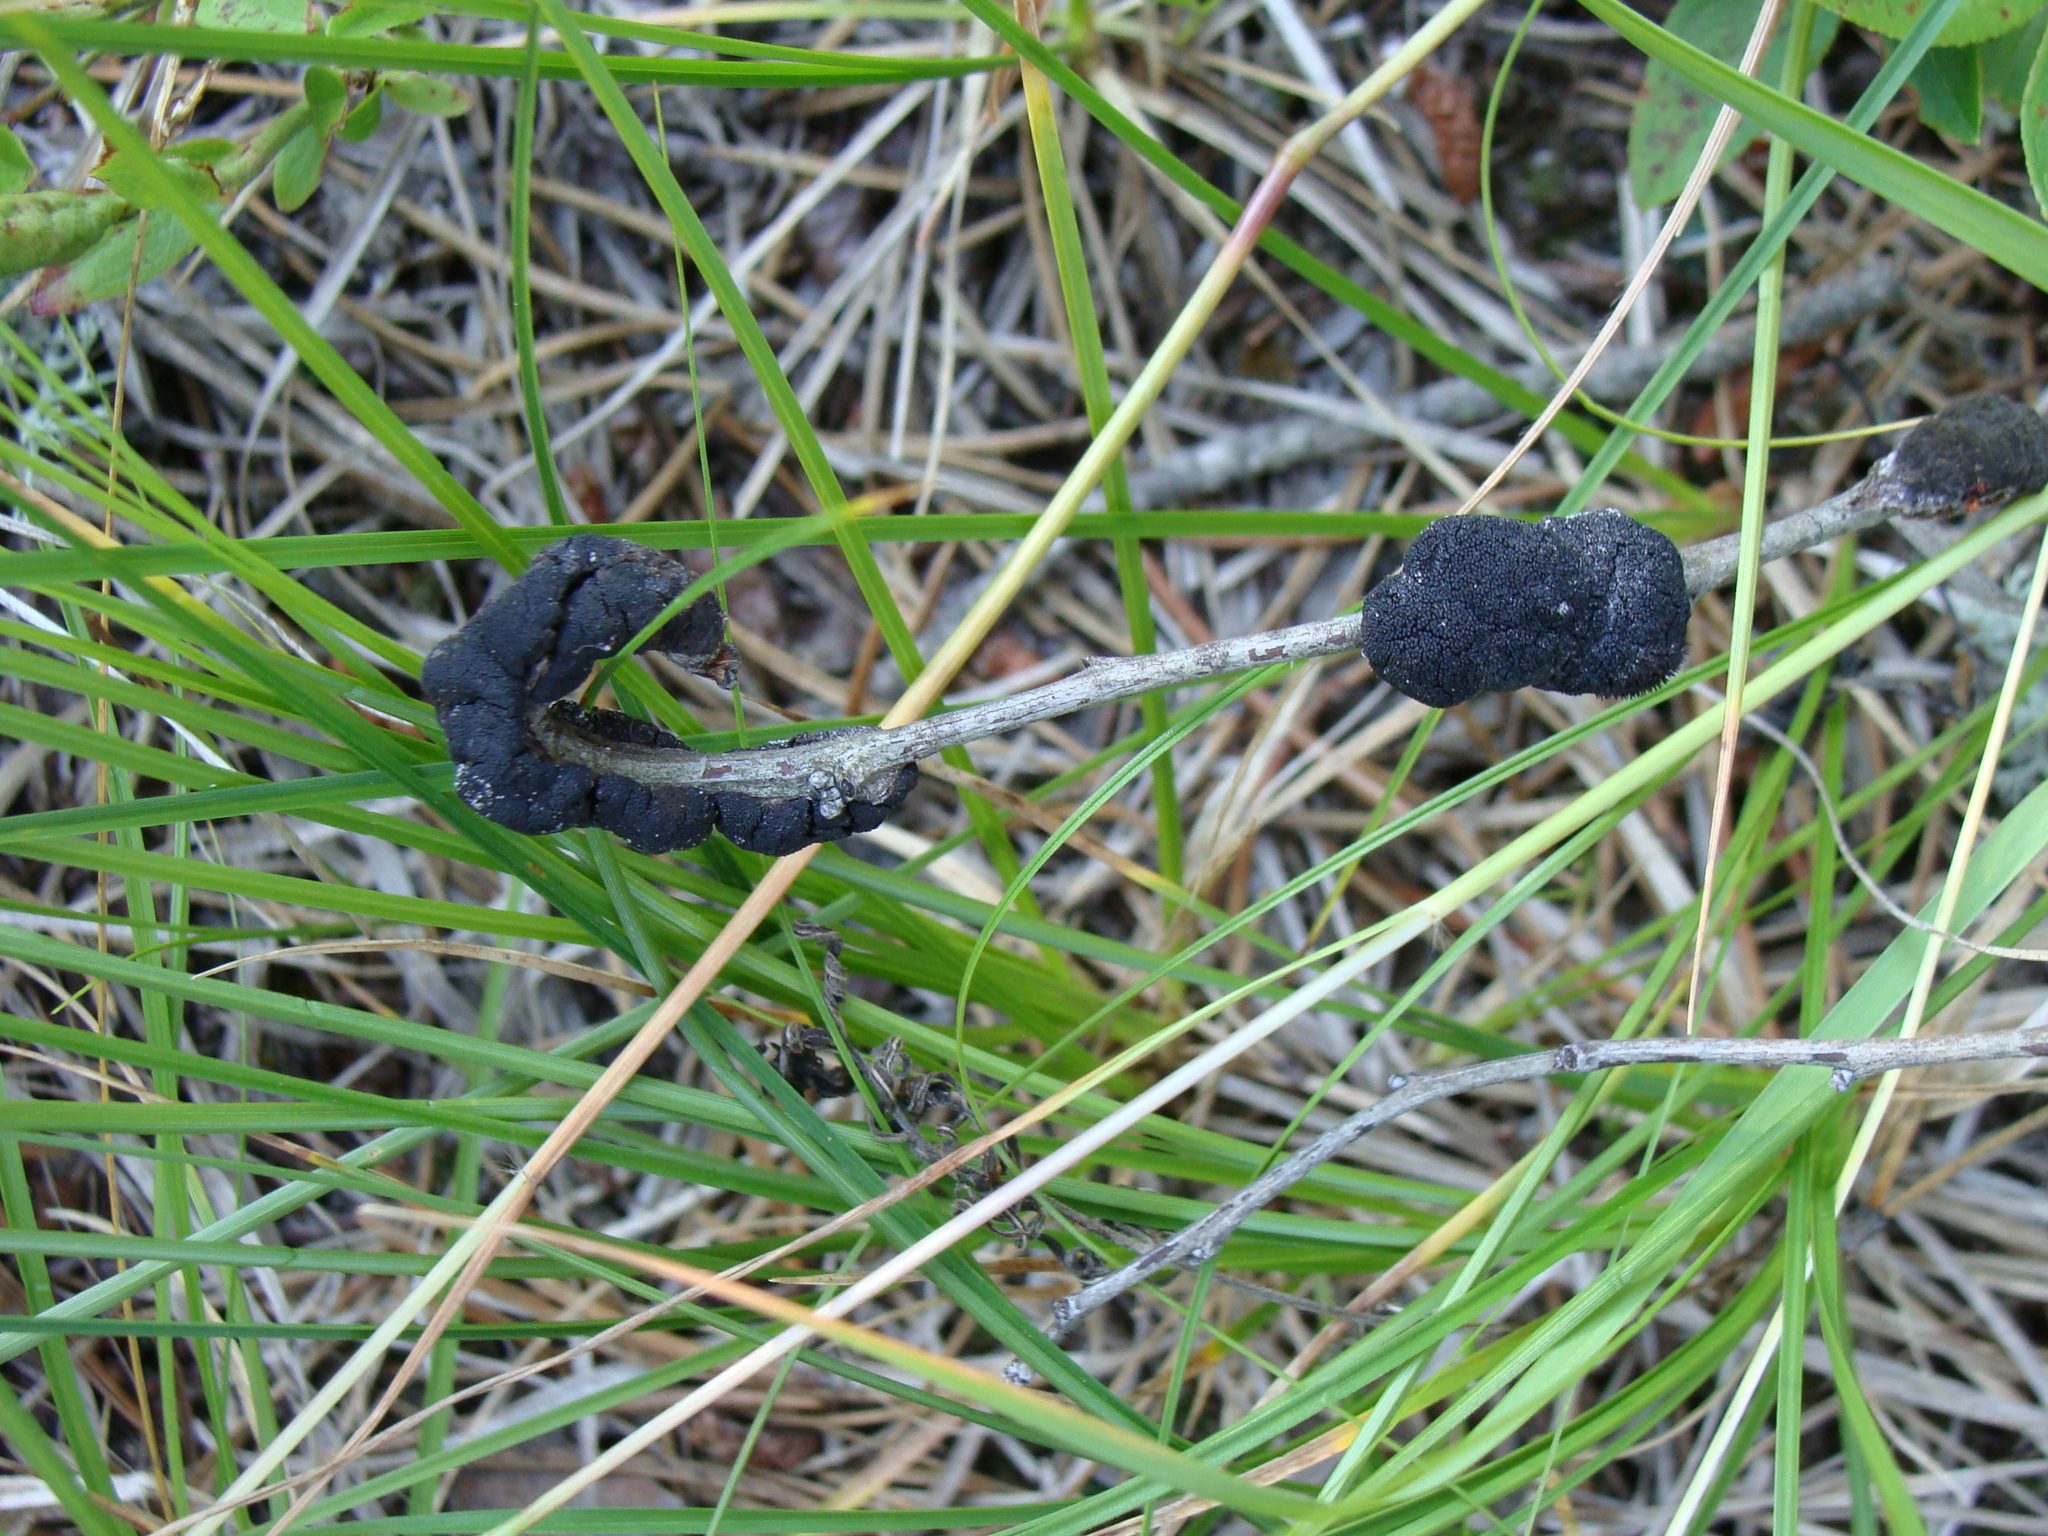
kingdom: Fungi
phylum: Ascomycota
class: Dothideomycetes
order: Venturiales
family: Venturiaceae
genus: Apiosporina
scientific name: Apiosporina morbosa
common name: Black knot
